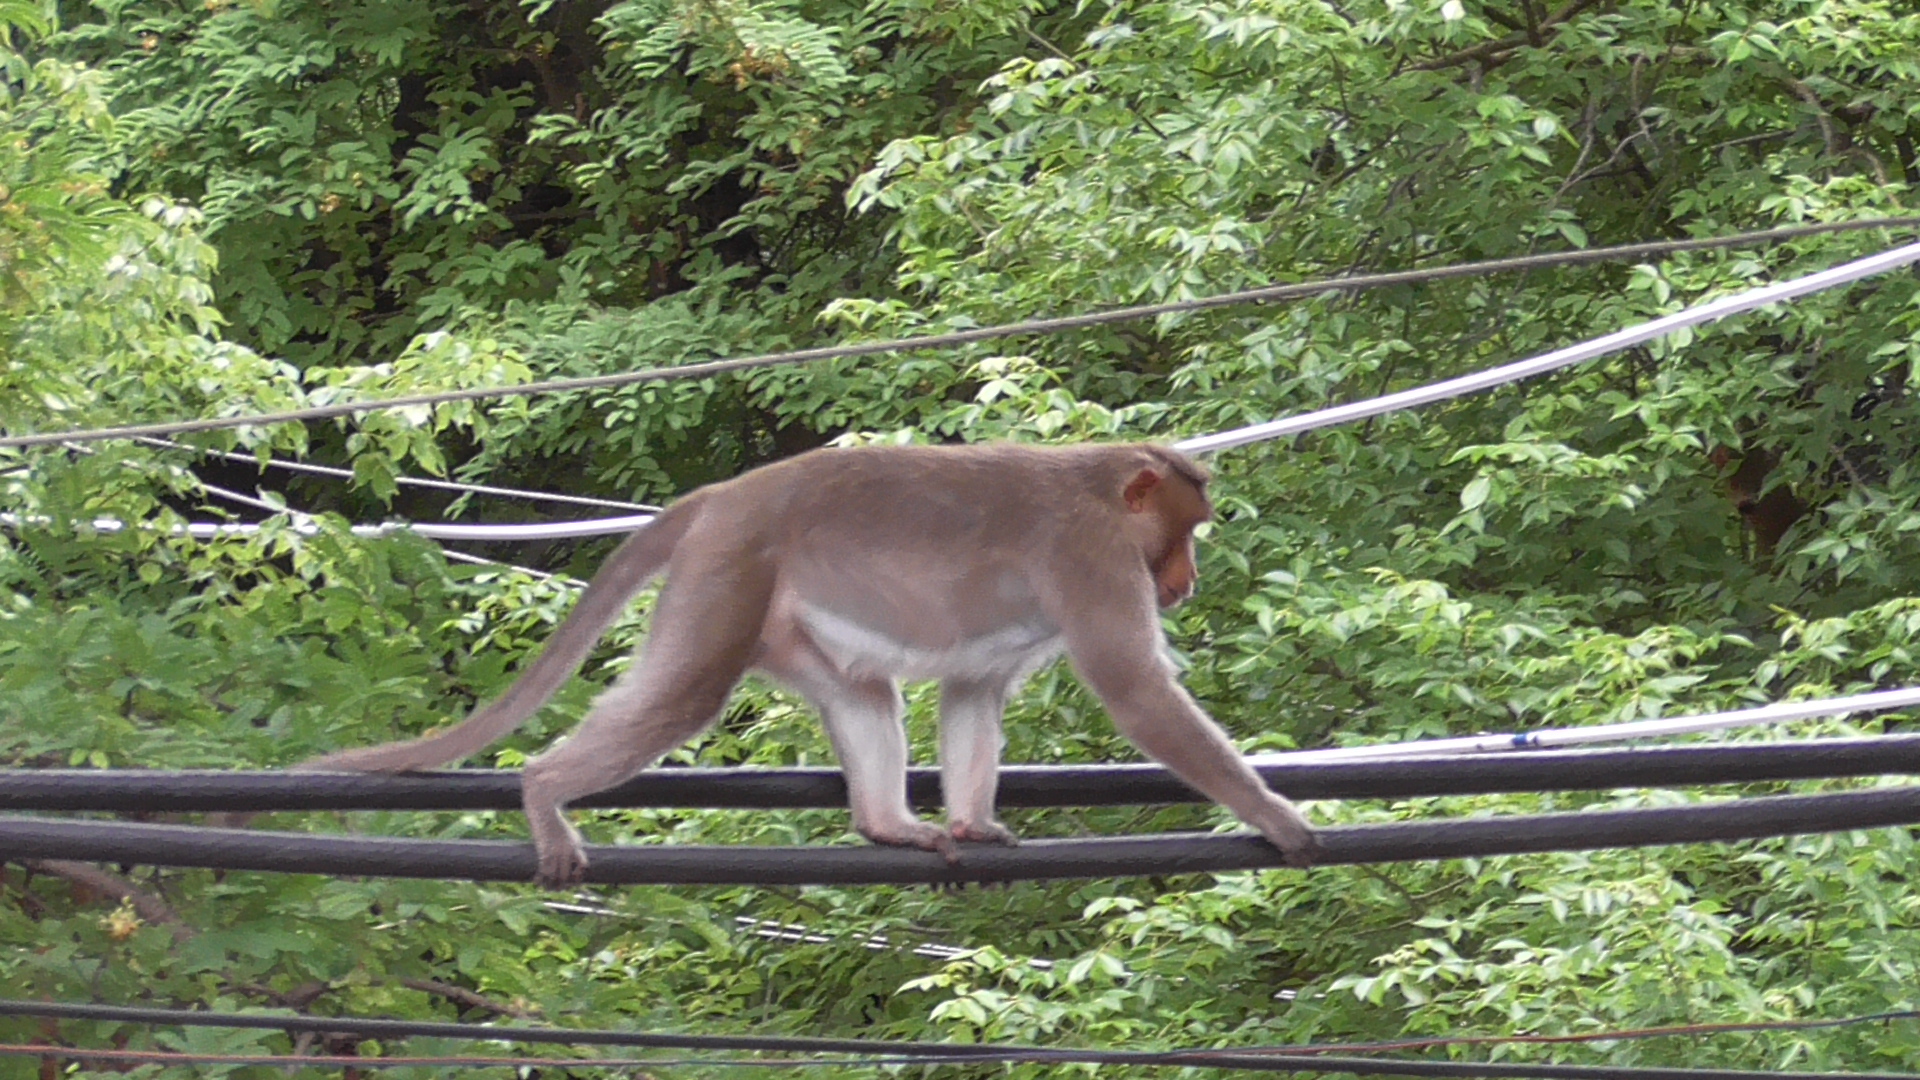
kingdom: Animalia
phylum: Chordata
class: Mammalia
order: Primates
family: Cercopithecidae
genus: Macaca
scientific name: Macaca radiata
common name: Bonnet macaque
